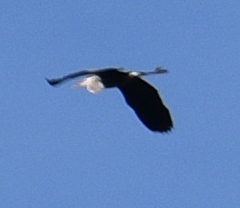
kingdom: Animalia
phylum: Chordata
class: Aves
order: Pelecaniformes
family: Ardeidae
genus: Ardea
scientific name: Ardea herodias
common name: Great blue heron
